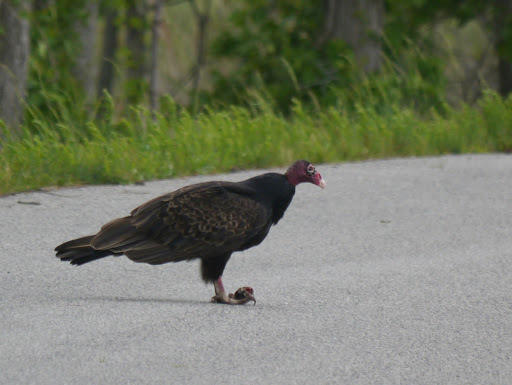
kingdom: Animalia
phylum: Chordata
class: Aves
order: Accipitriformes
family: Cathartidae
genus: Cathartes
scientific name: Cathartes aura
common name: Turkey vulture
